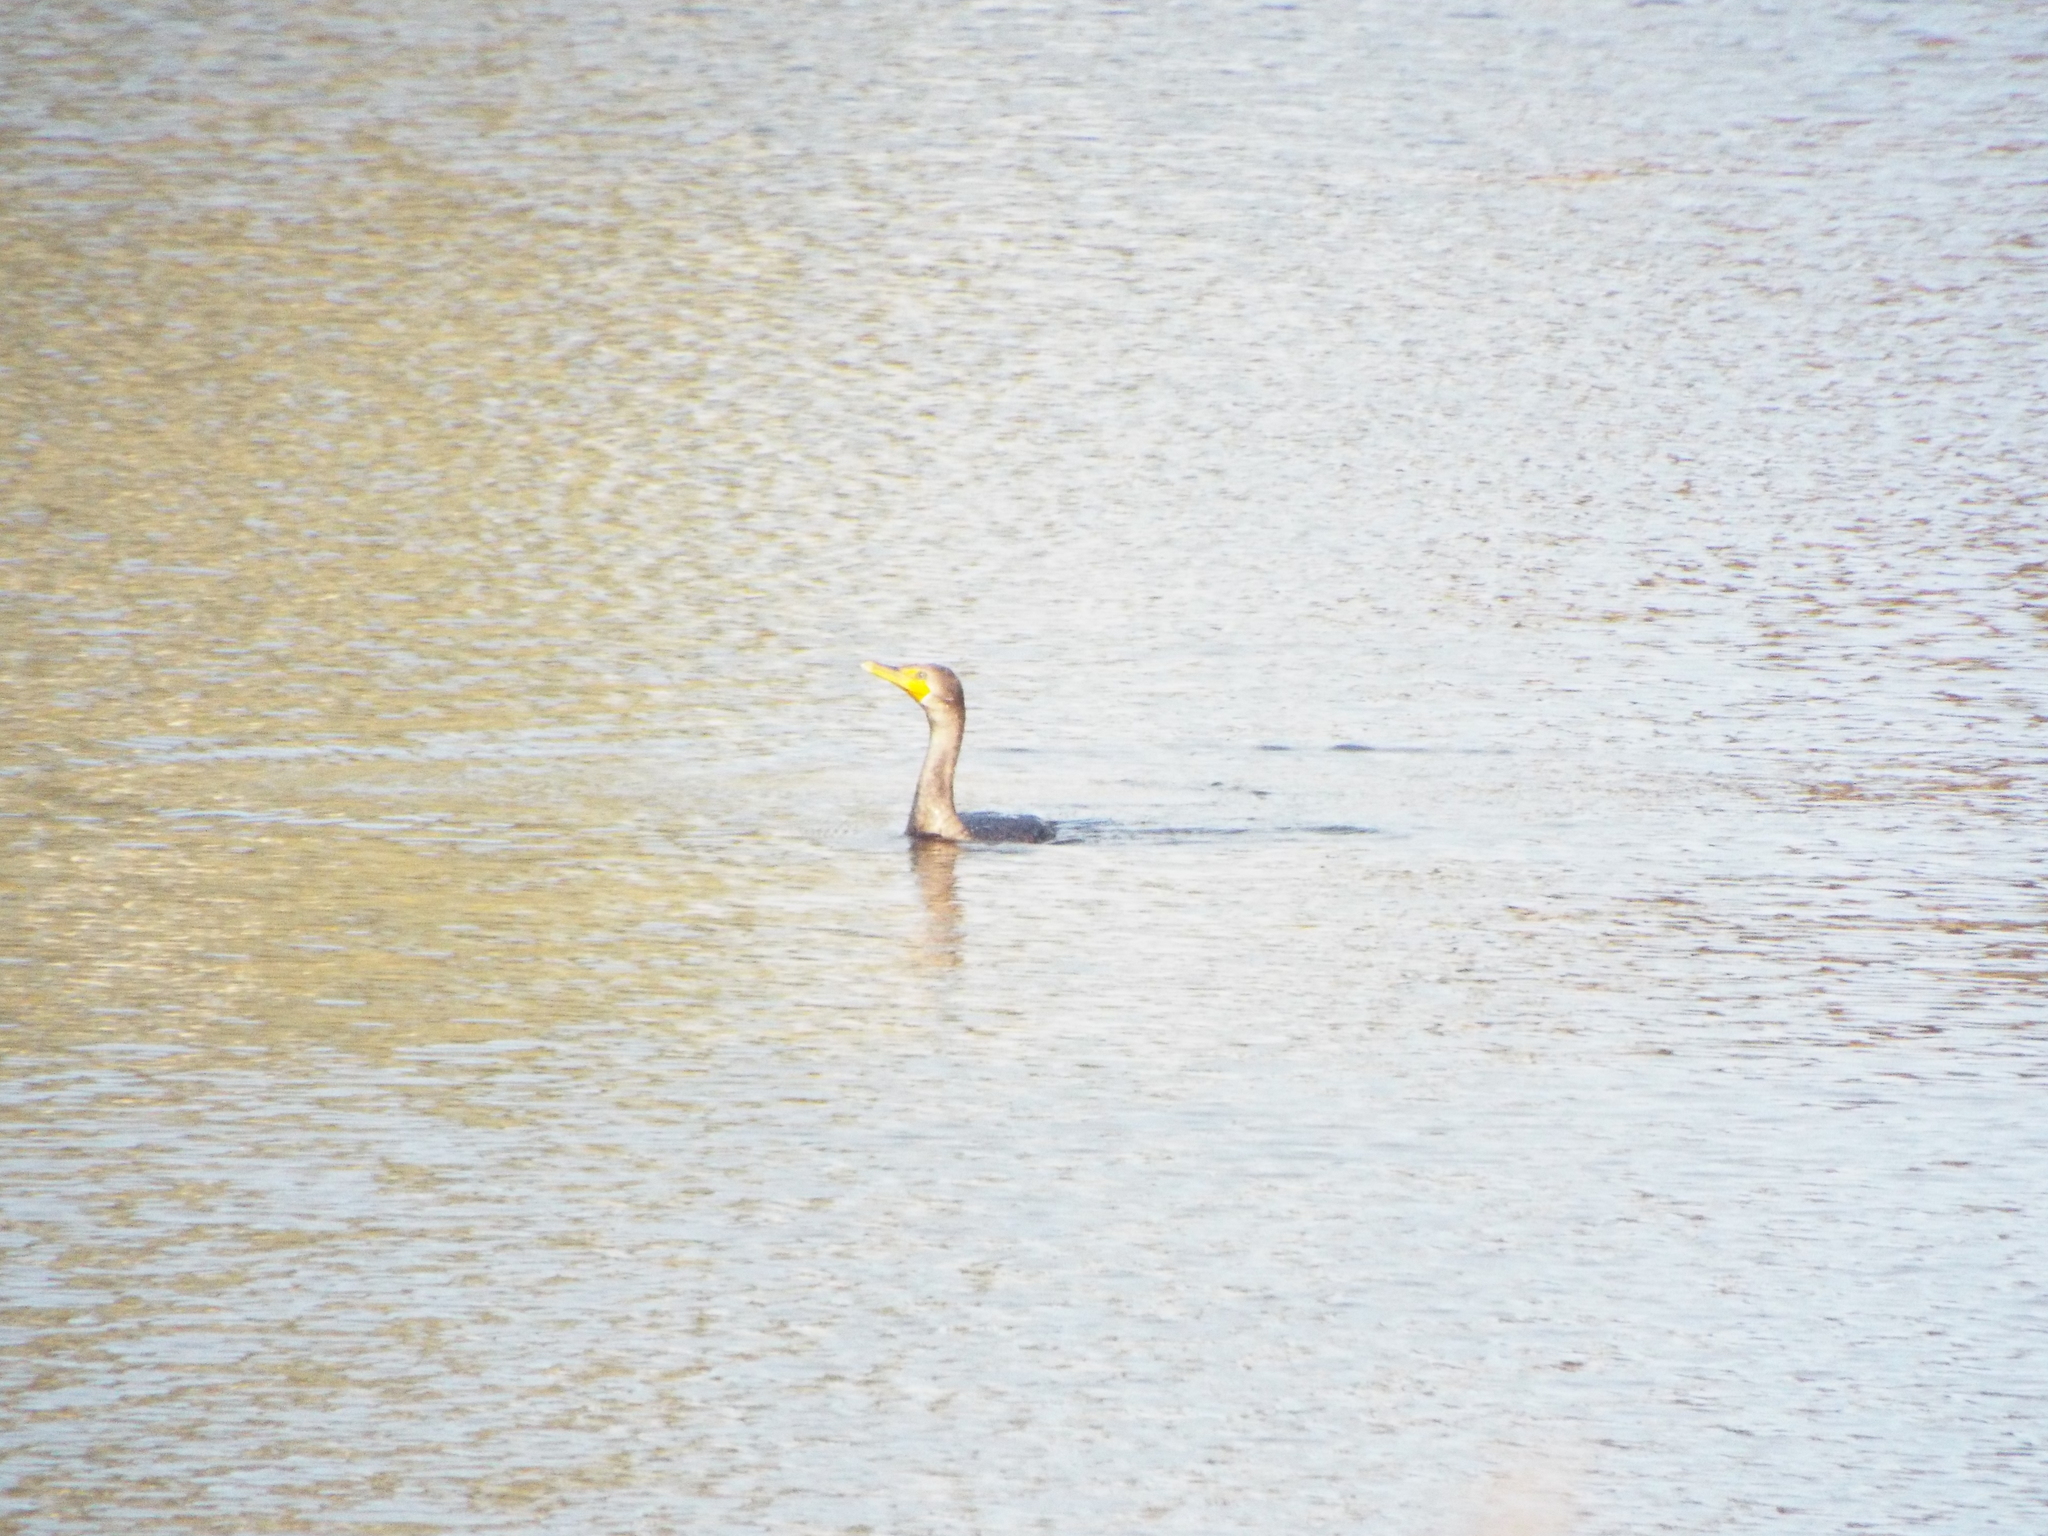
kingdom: Animalia
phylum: Chordata
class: Aves
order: Suliformes
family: Phalacrocoracidae
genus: Phalacrocorax
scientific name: Phalacrocorax auritus
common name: Double-crested cormorant
